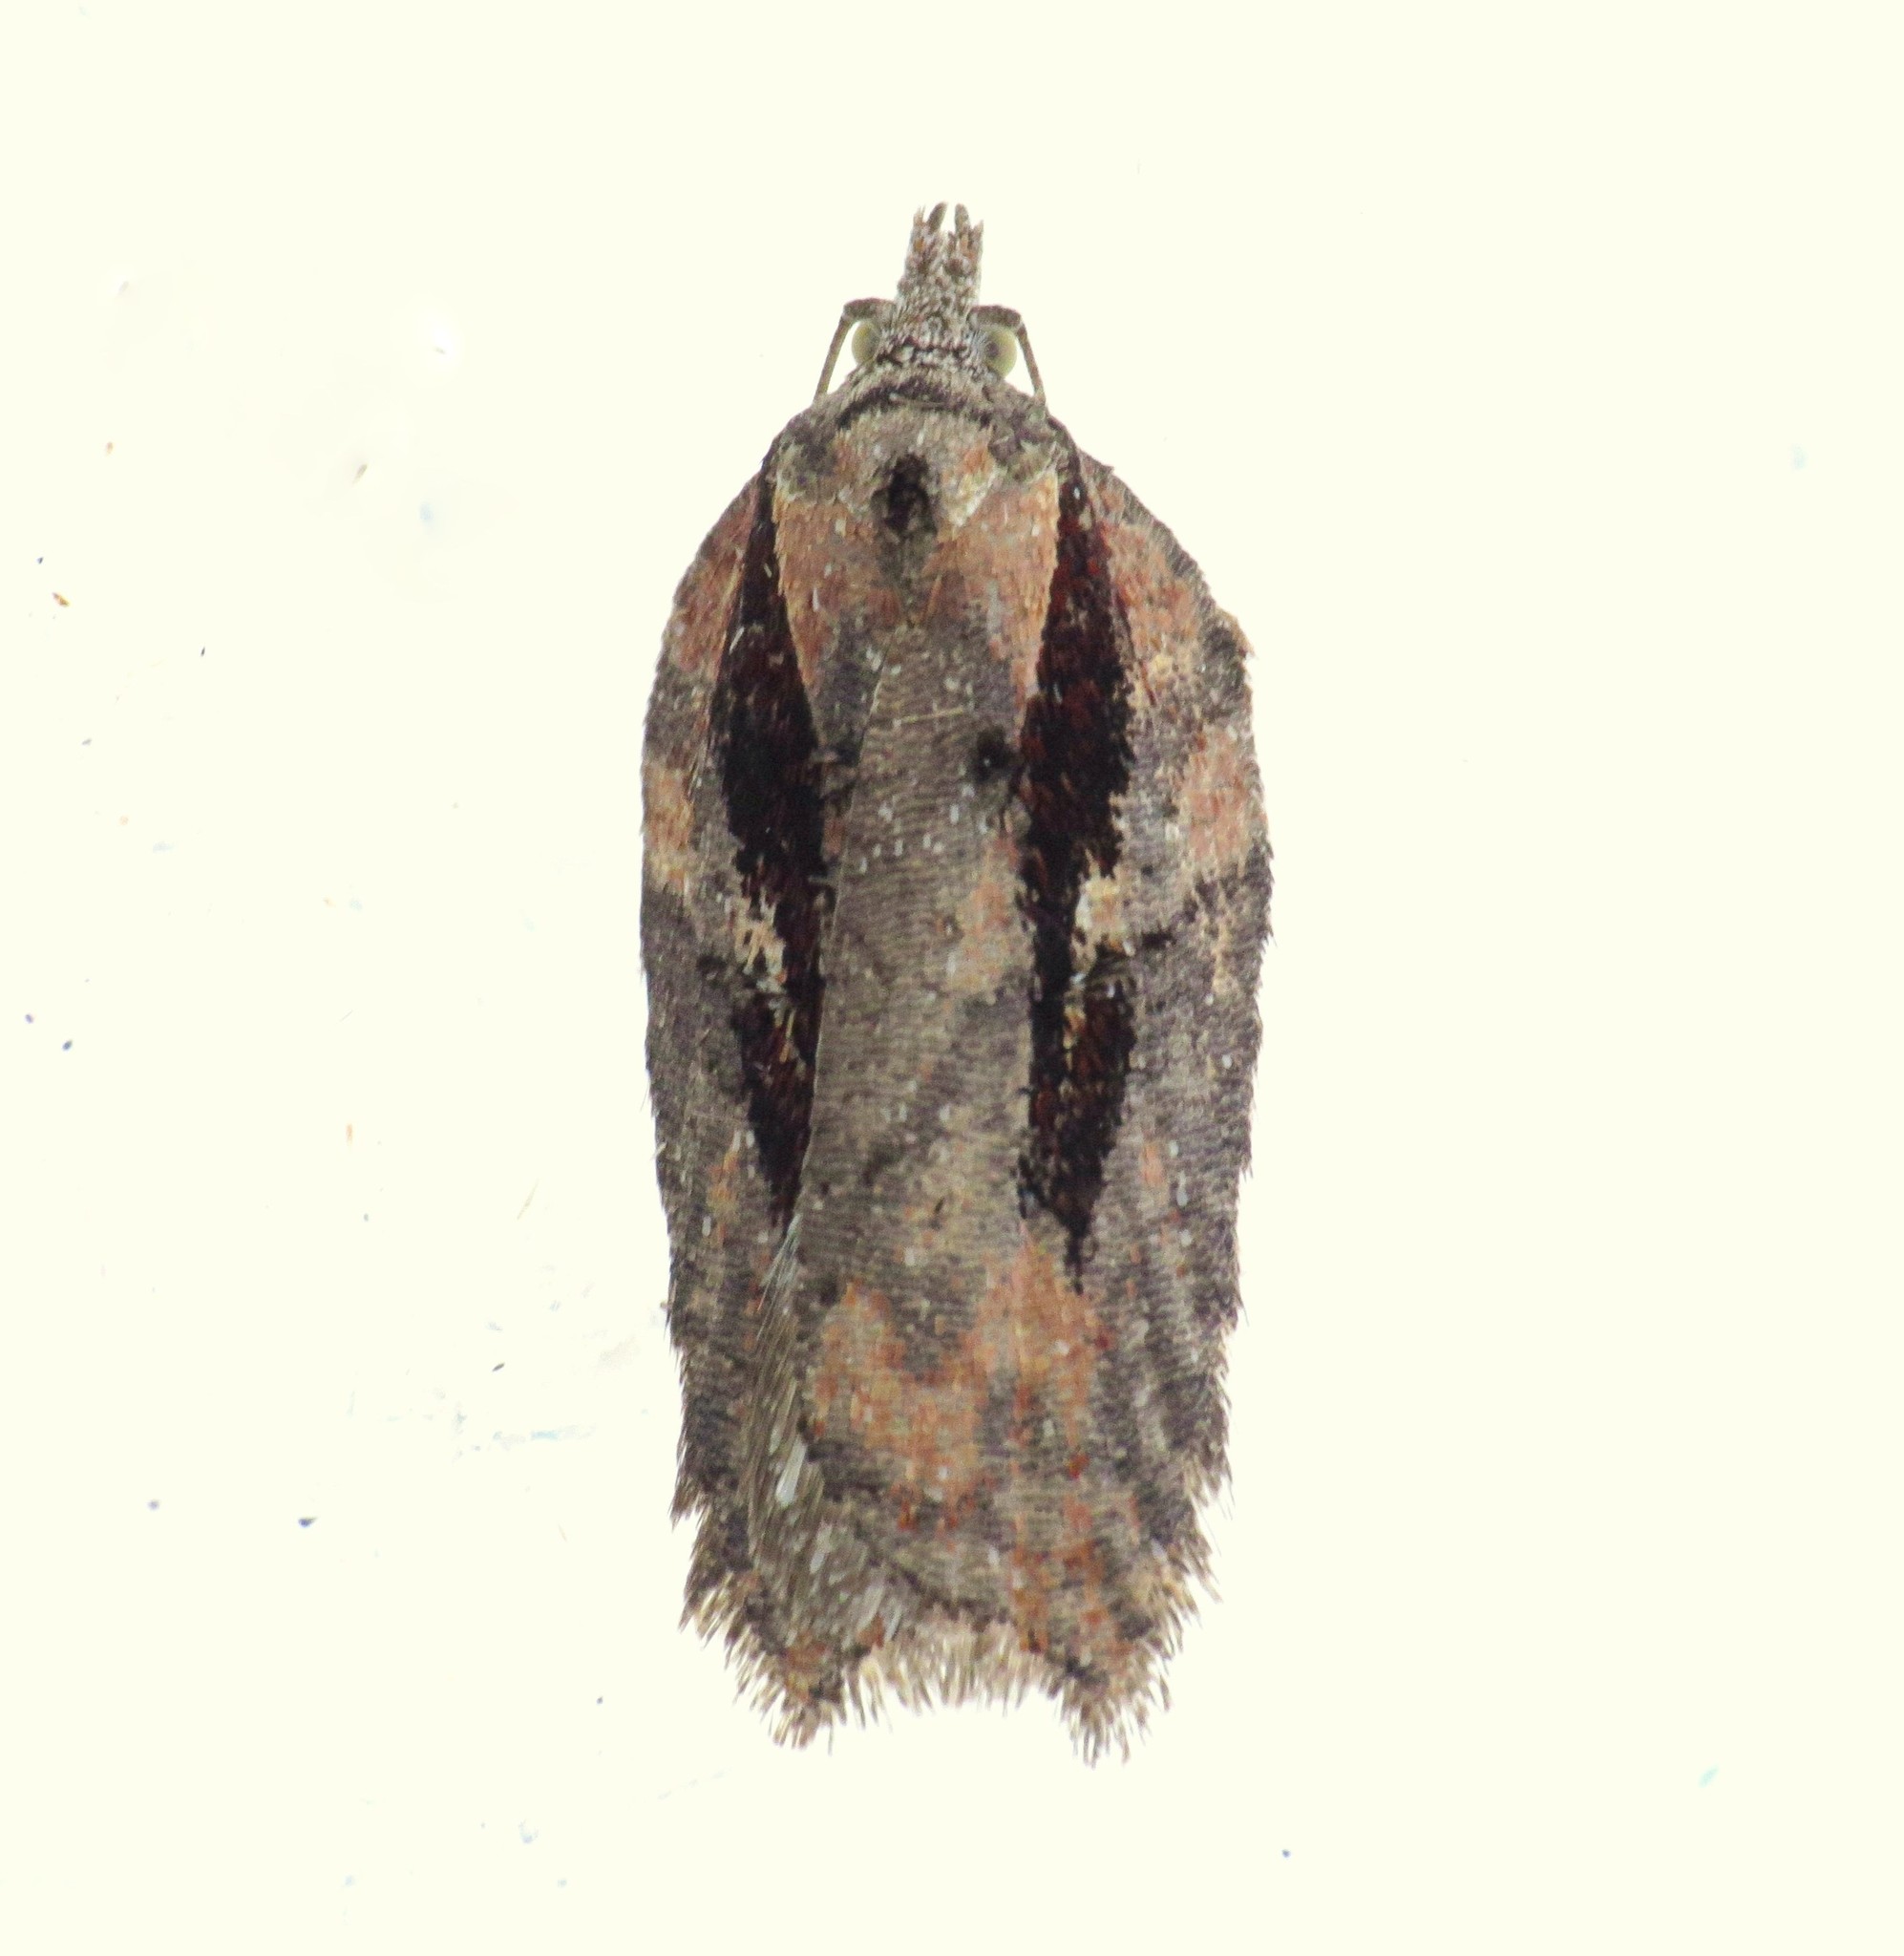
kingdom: Animalia
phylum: Arthropoda
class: Insecta
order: Lepidoptera
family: Tortricidae
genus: Acleris
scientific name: Acleris flavivittana
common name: Multiform leafroller moth
